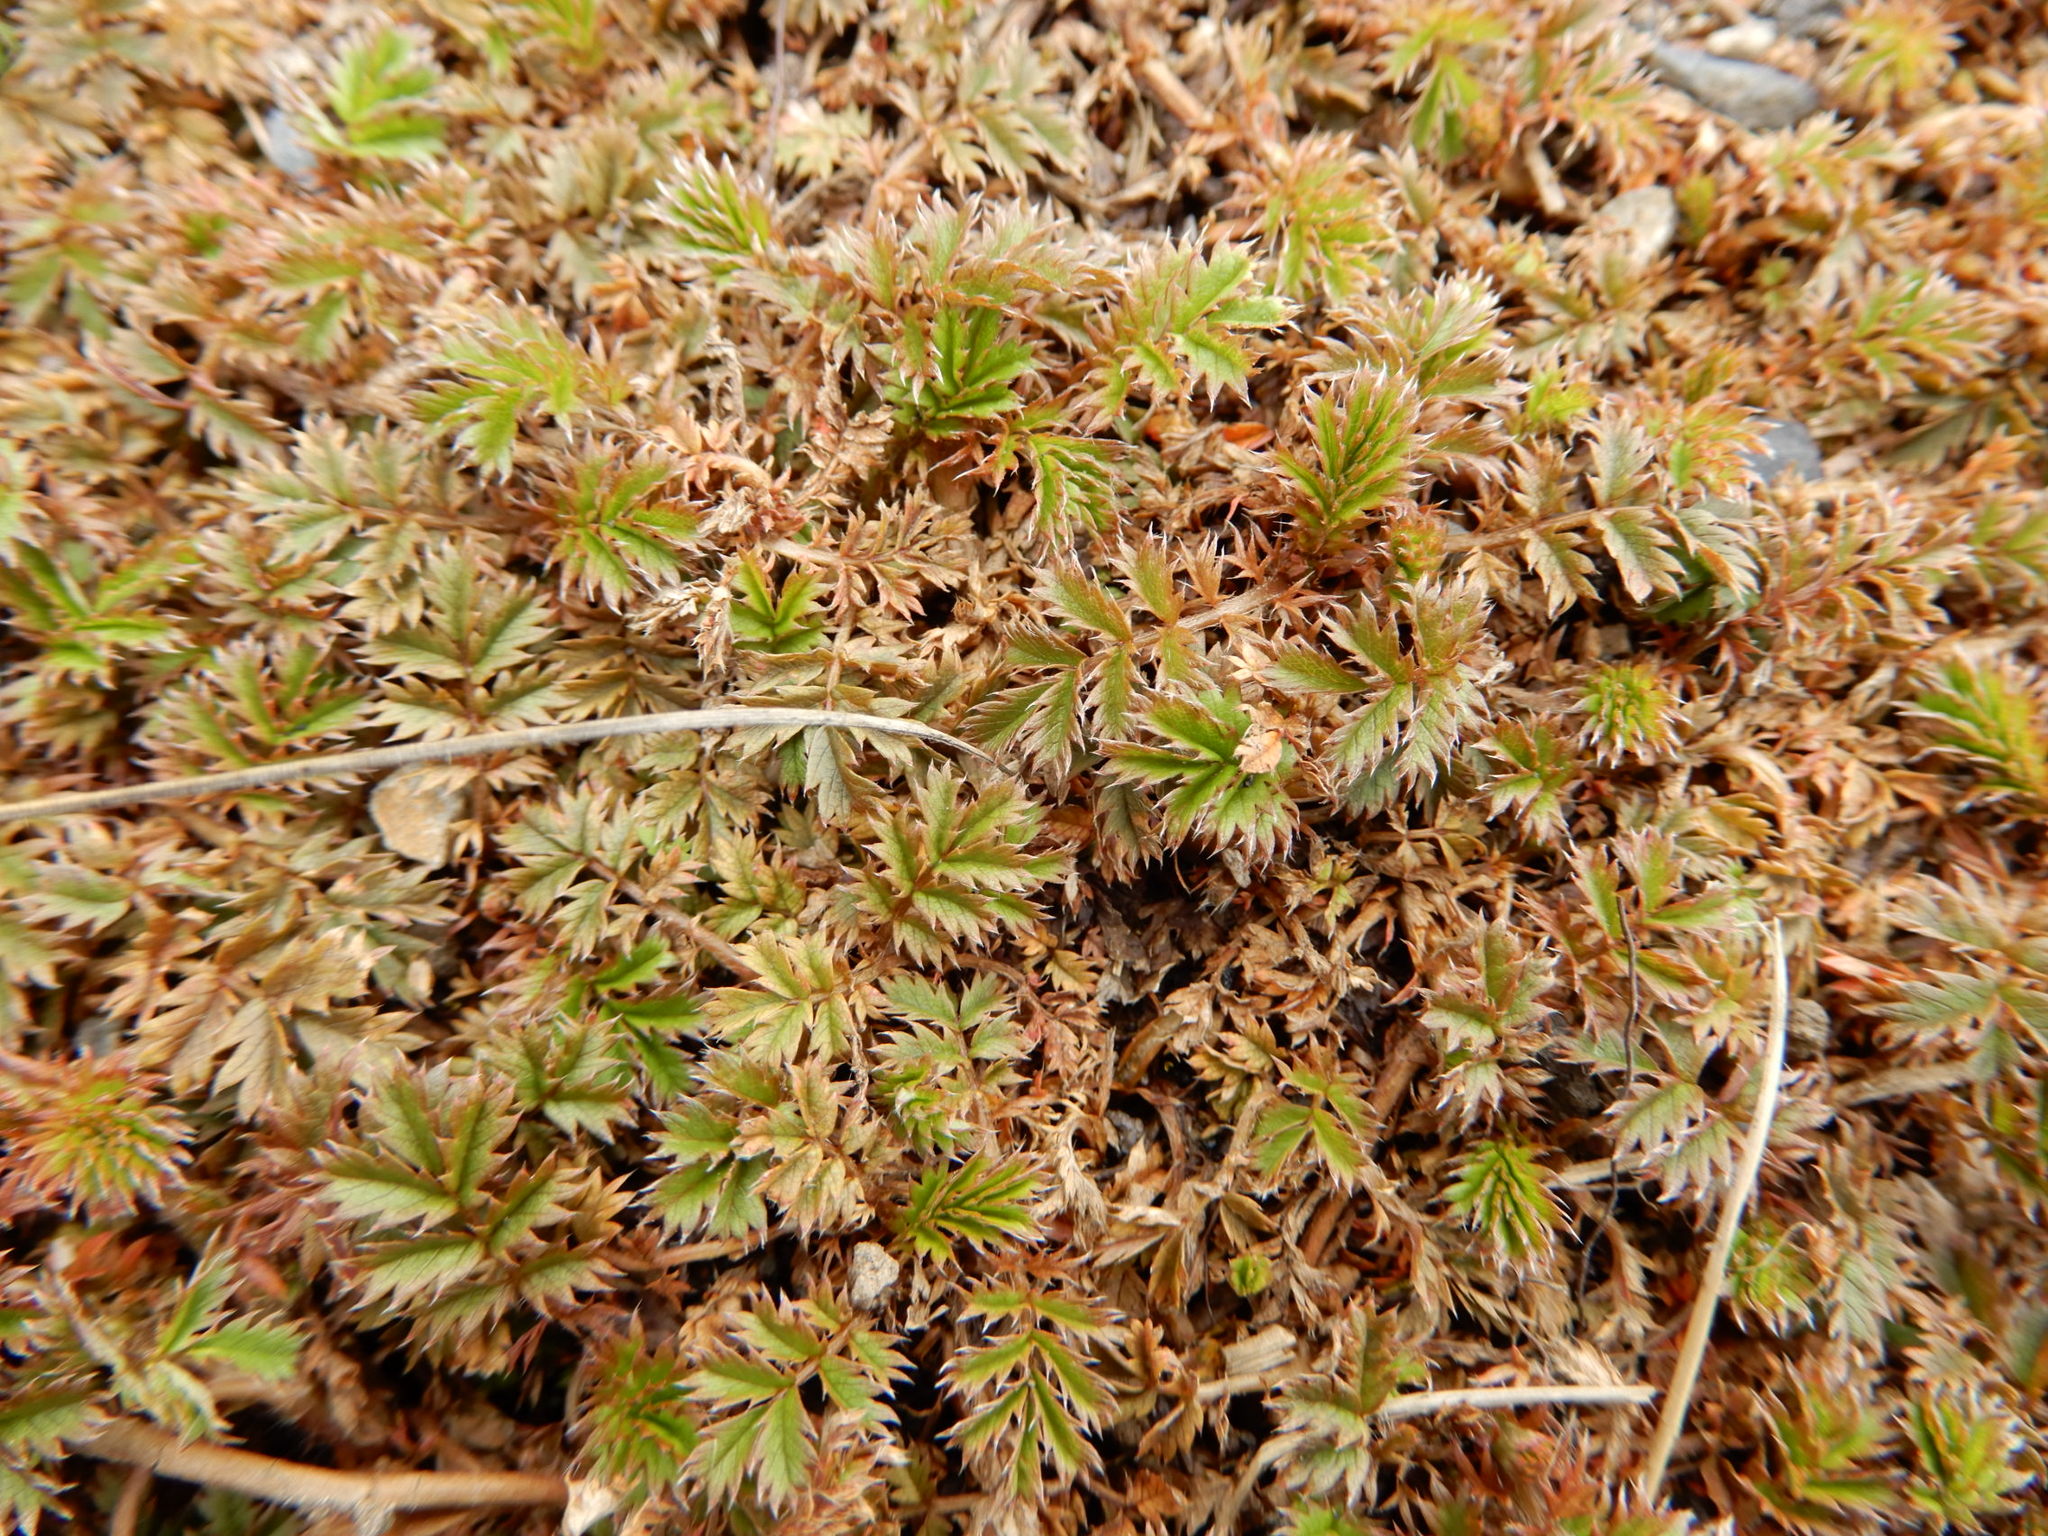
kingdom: Plantae
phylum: Tracheophyta
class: Magnoliopsida
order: Rosales
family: Rosaceae
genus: Acaena
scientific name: Acaena anserinifolia
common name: Bronze pirri-pirri-bur
